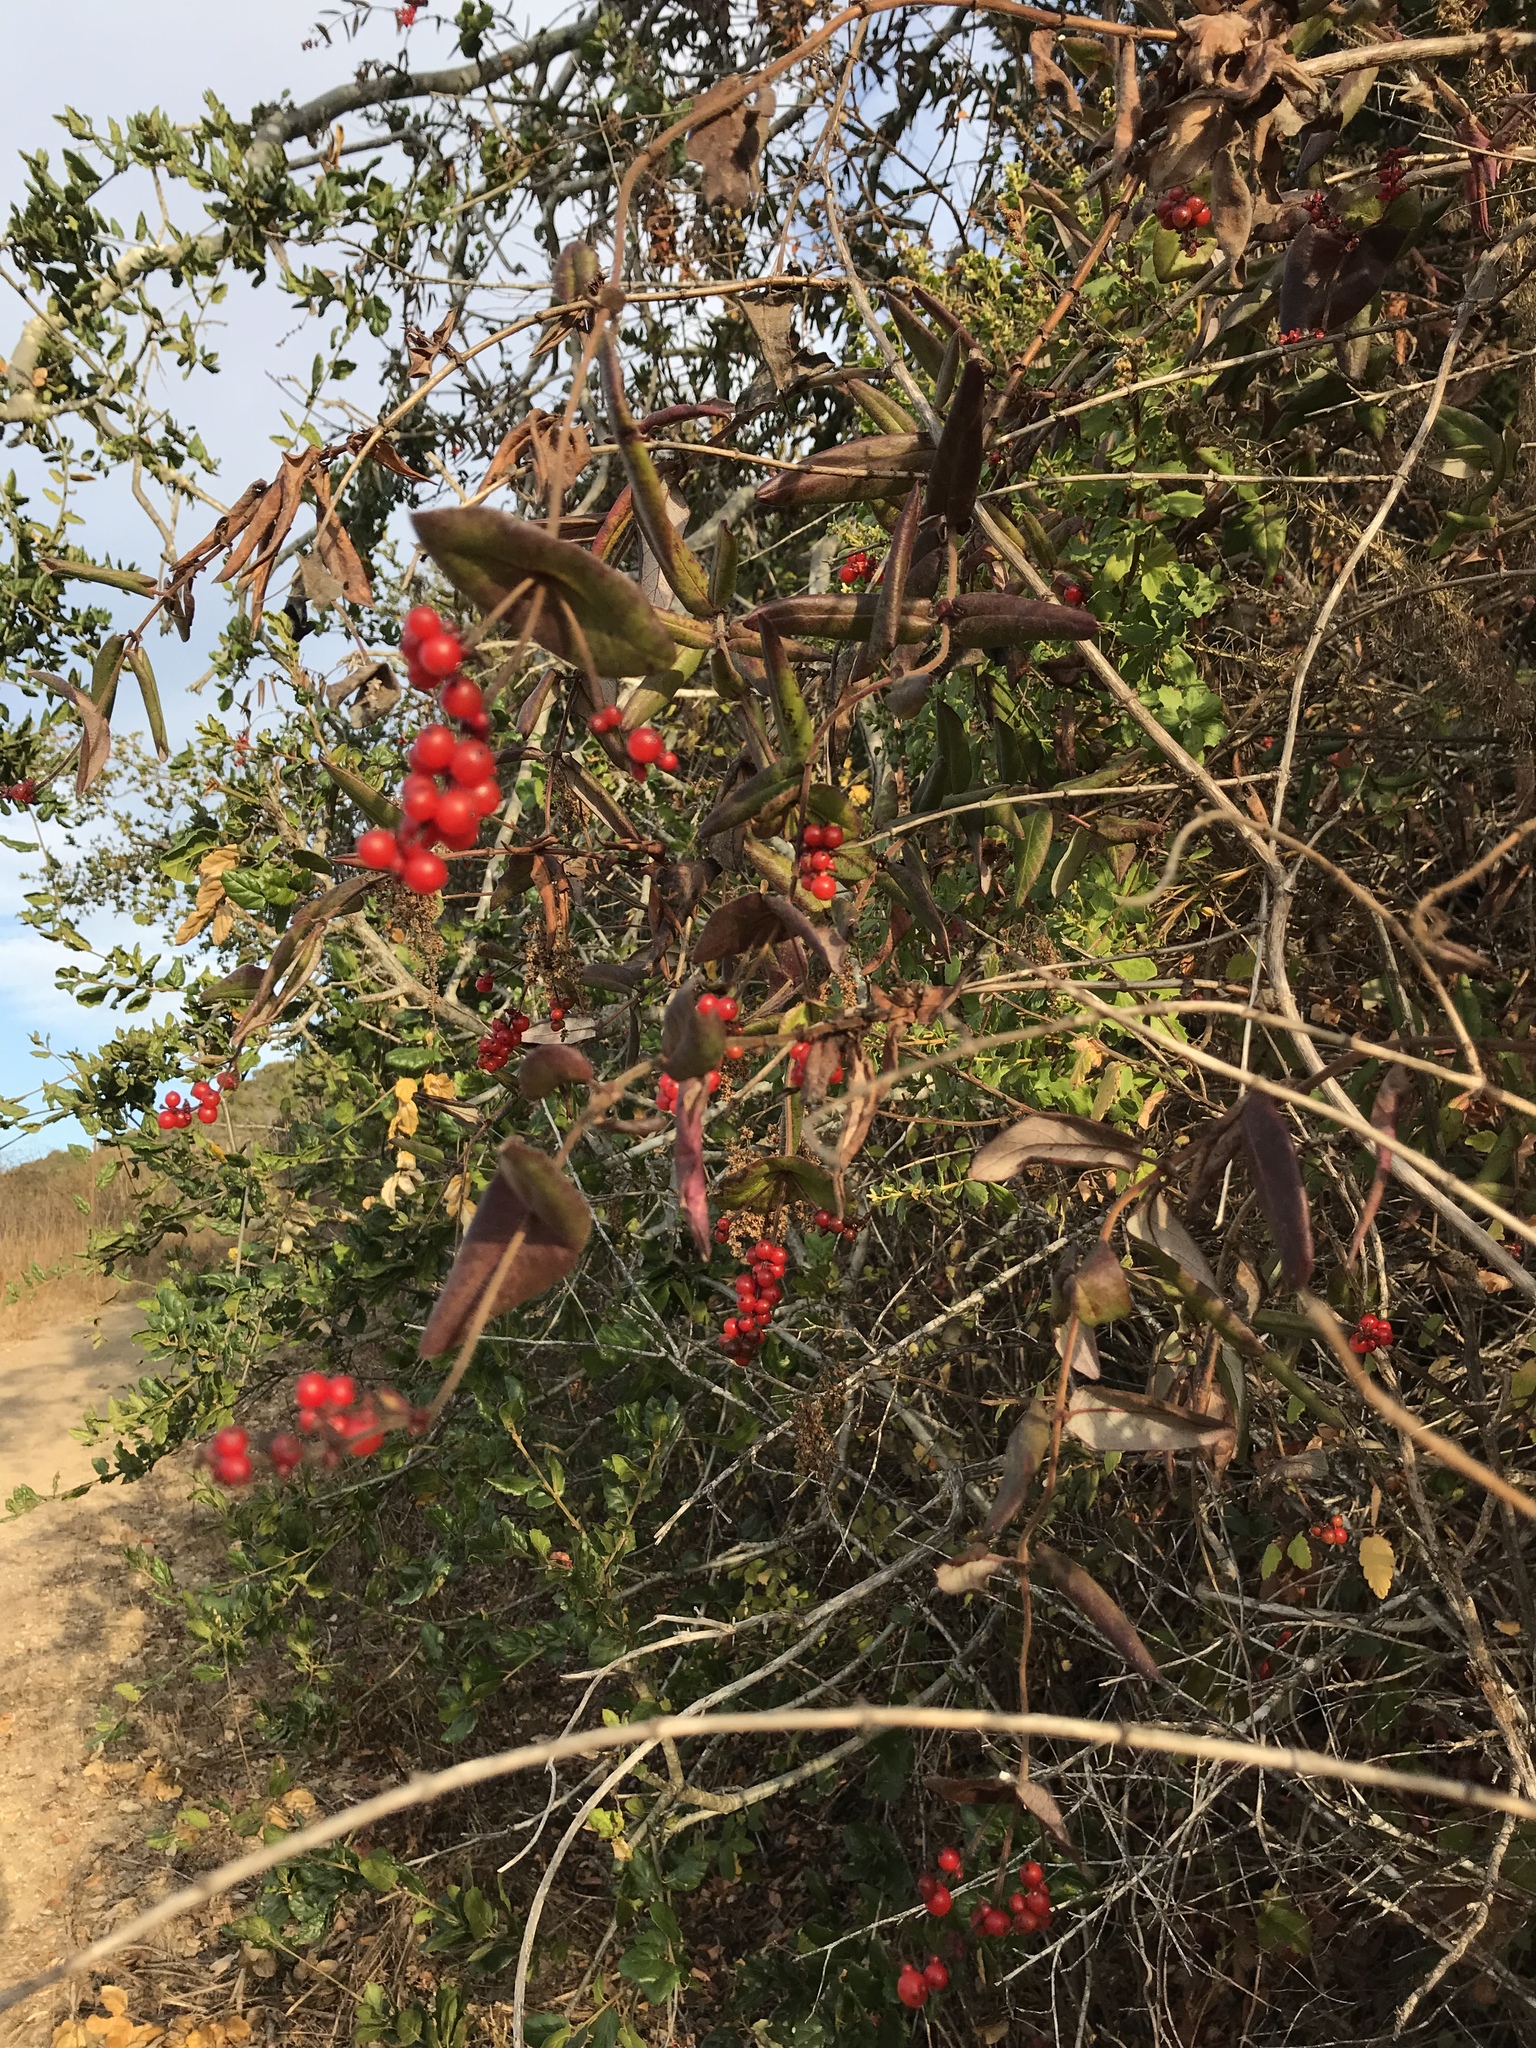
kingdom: Plantae
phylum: Tracheophyta
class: Magnoliopsida
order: Dipsacales
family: Caprifoliaceae
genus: Lonicera
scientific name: Lonicera hispidula
